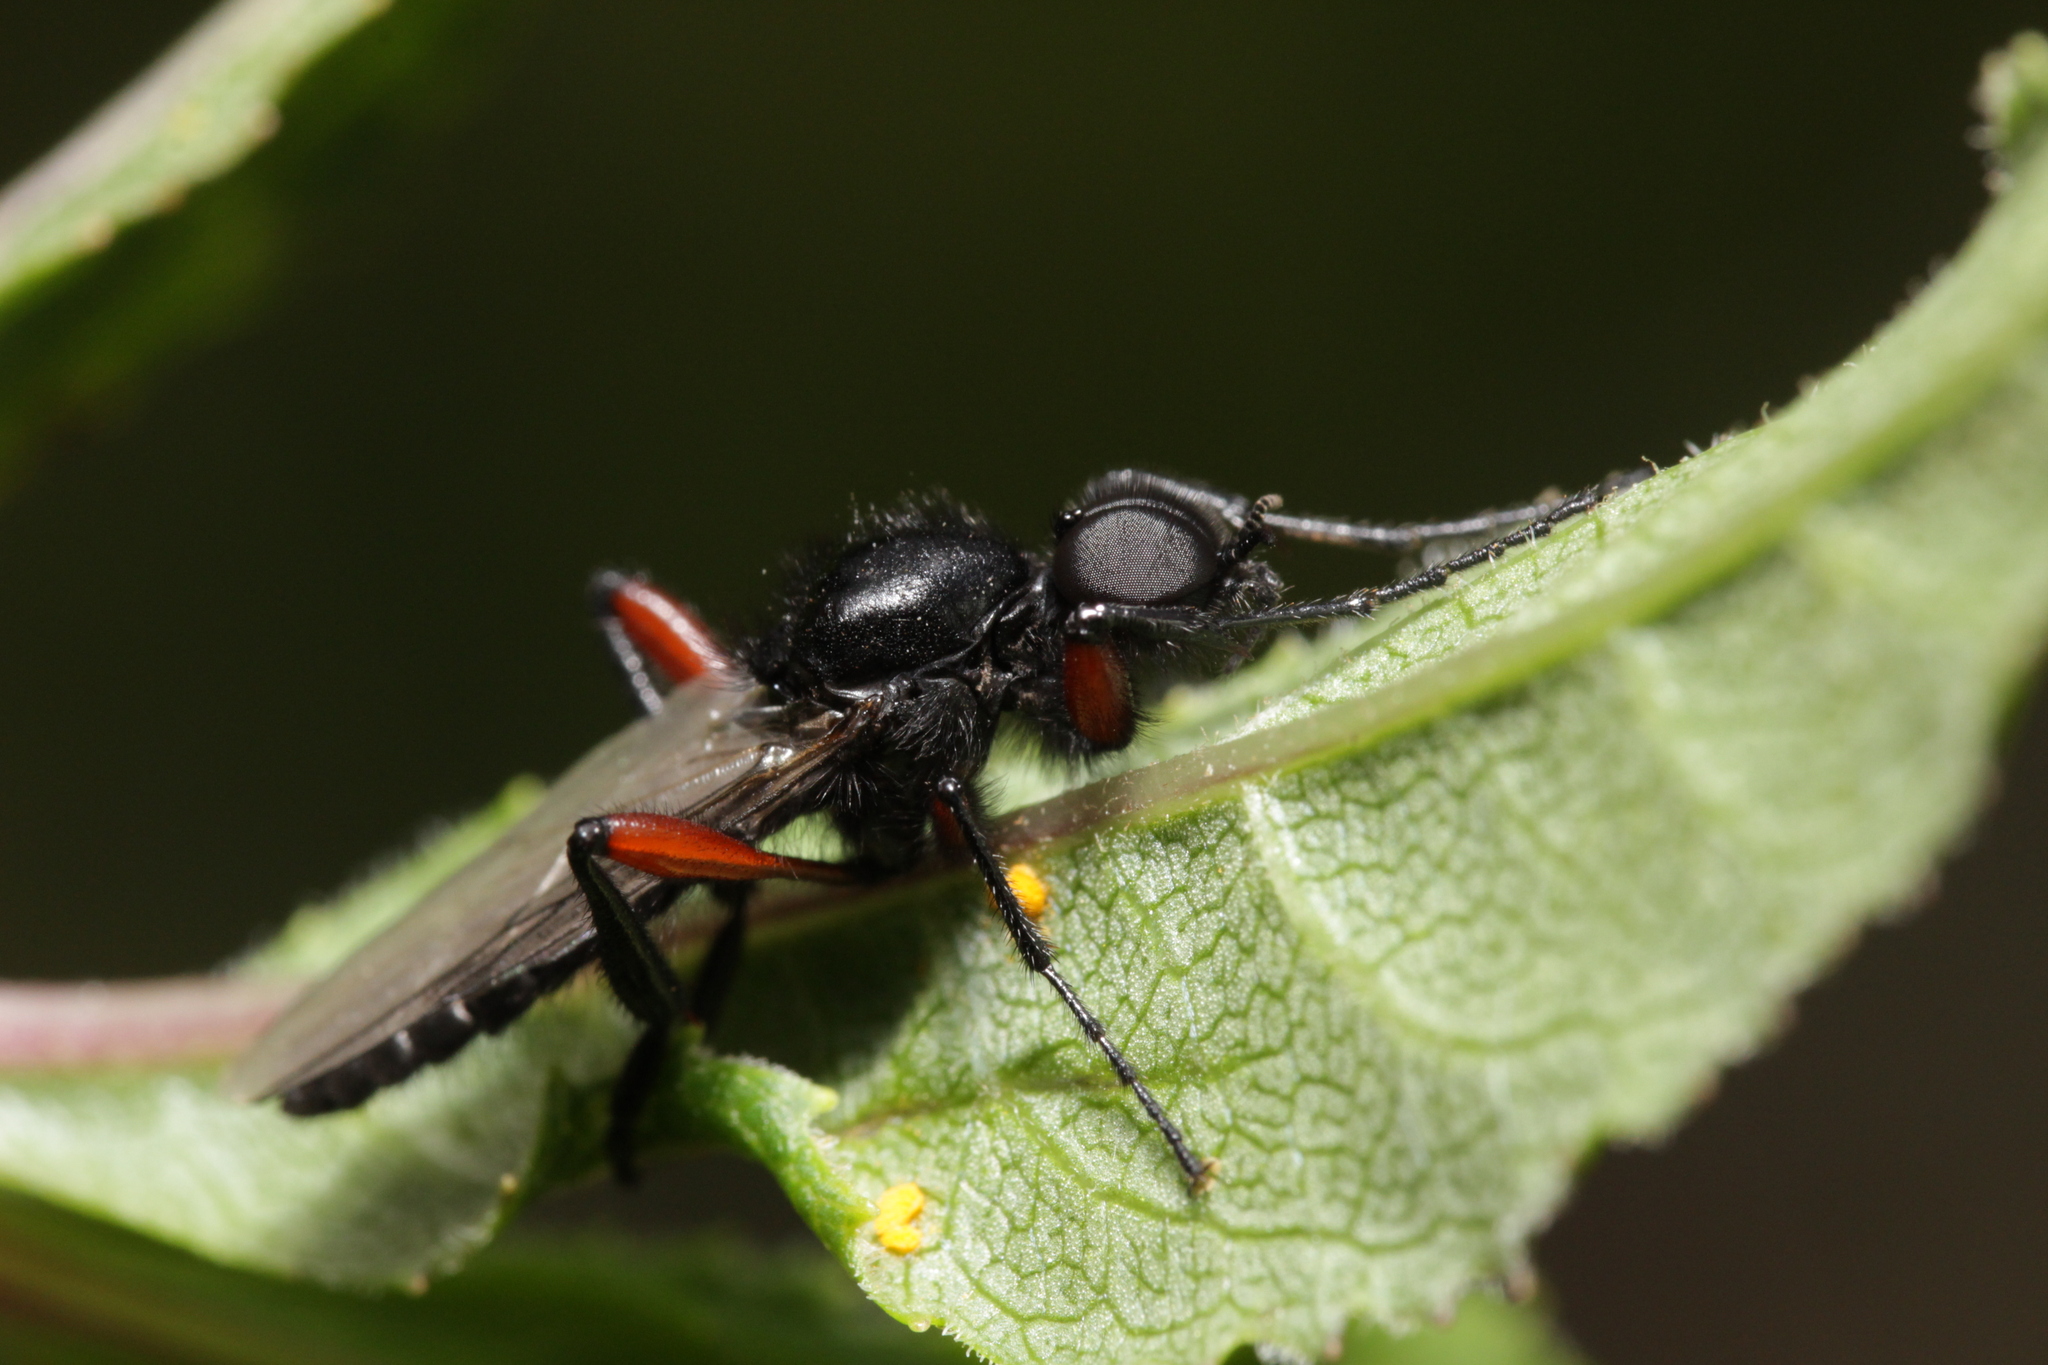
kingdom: Animalia
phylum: Arthropoda
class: Insecta
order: Diptera
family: Bibionidae
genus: Bibio
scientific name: Bibio pomonae
